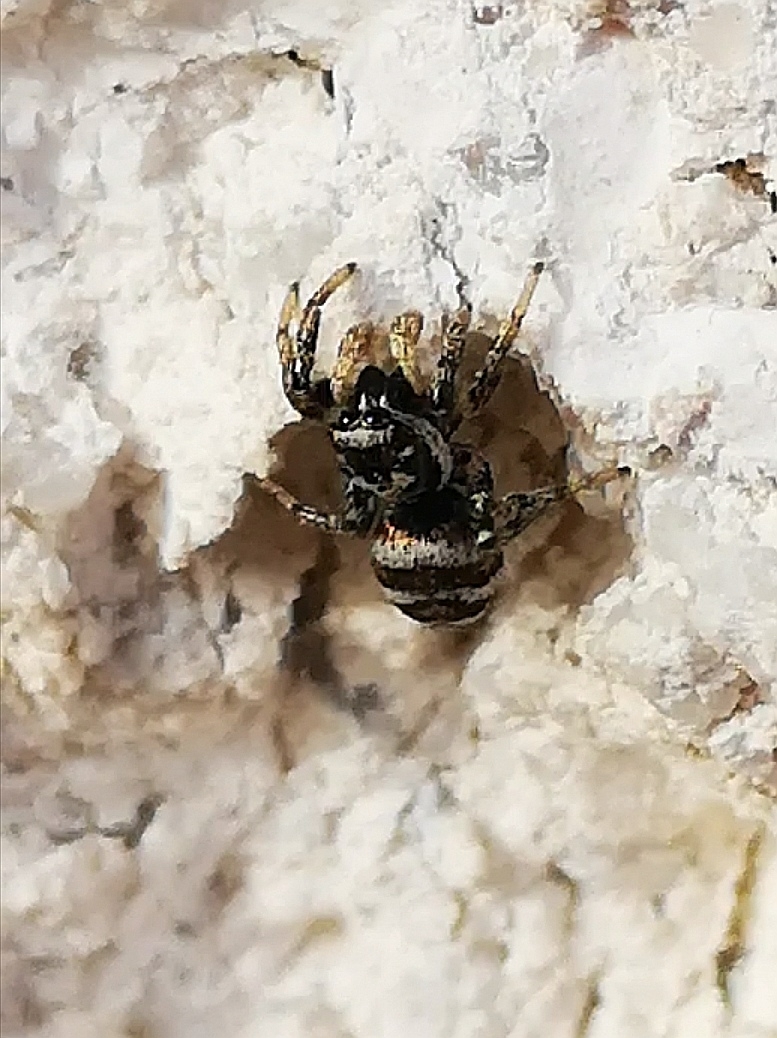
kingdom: Animalia
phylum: Arthropoda
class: Arachnida
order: Araneae
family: Salticidae
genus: Salticus
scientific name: Salticus scenicus
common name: Zebra jumper
